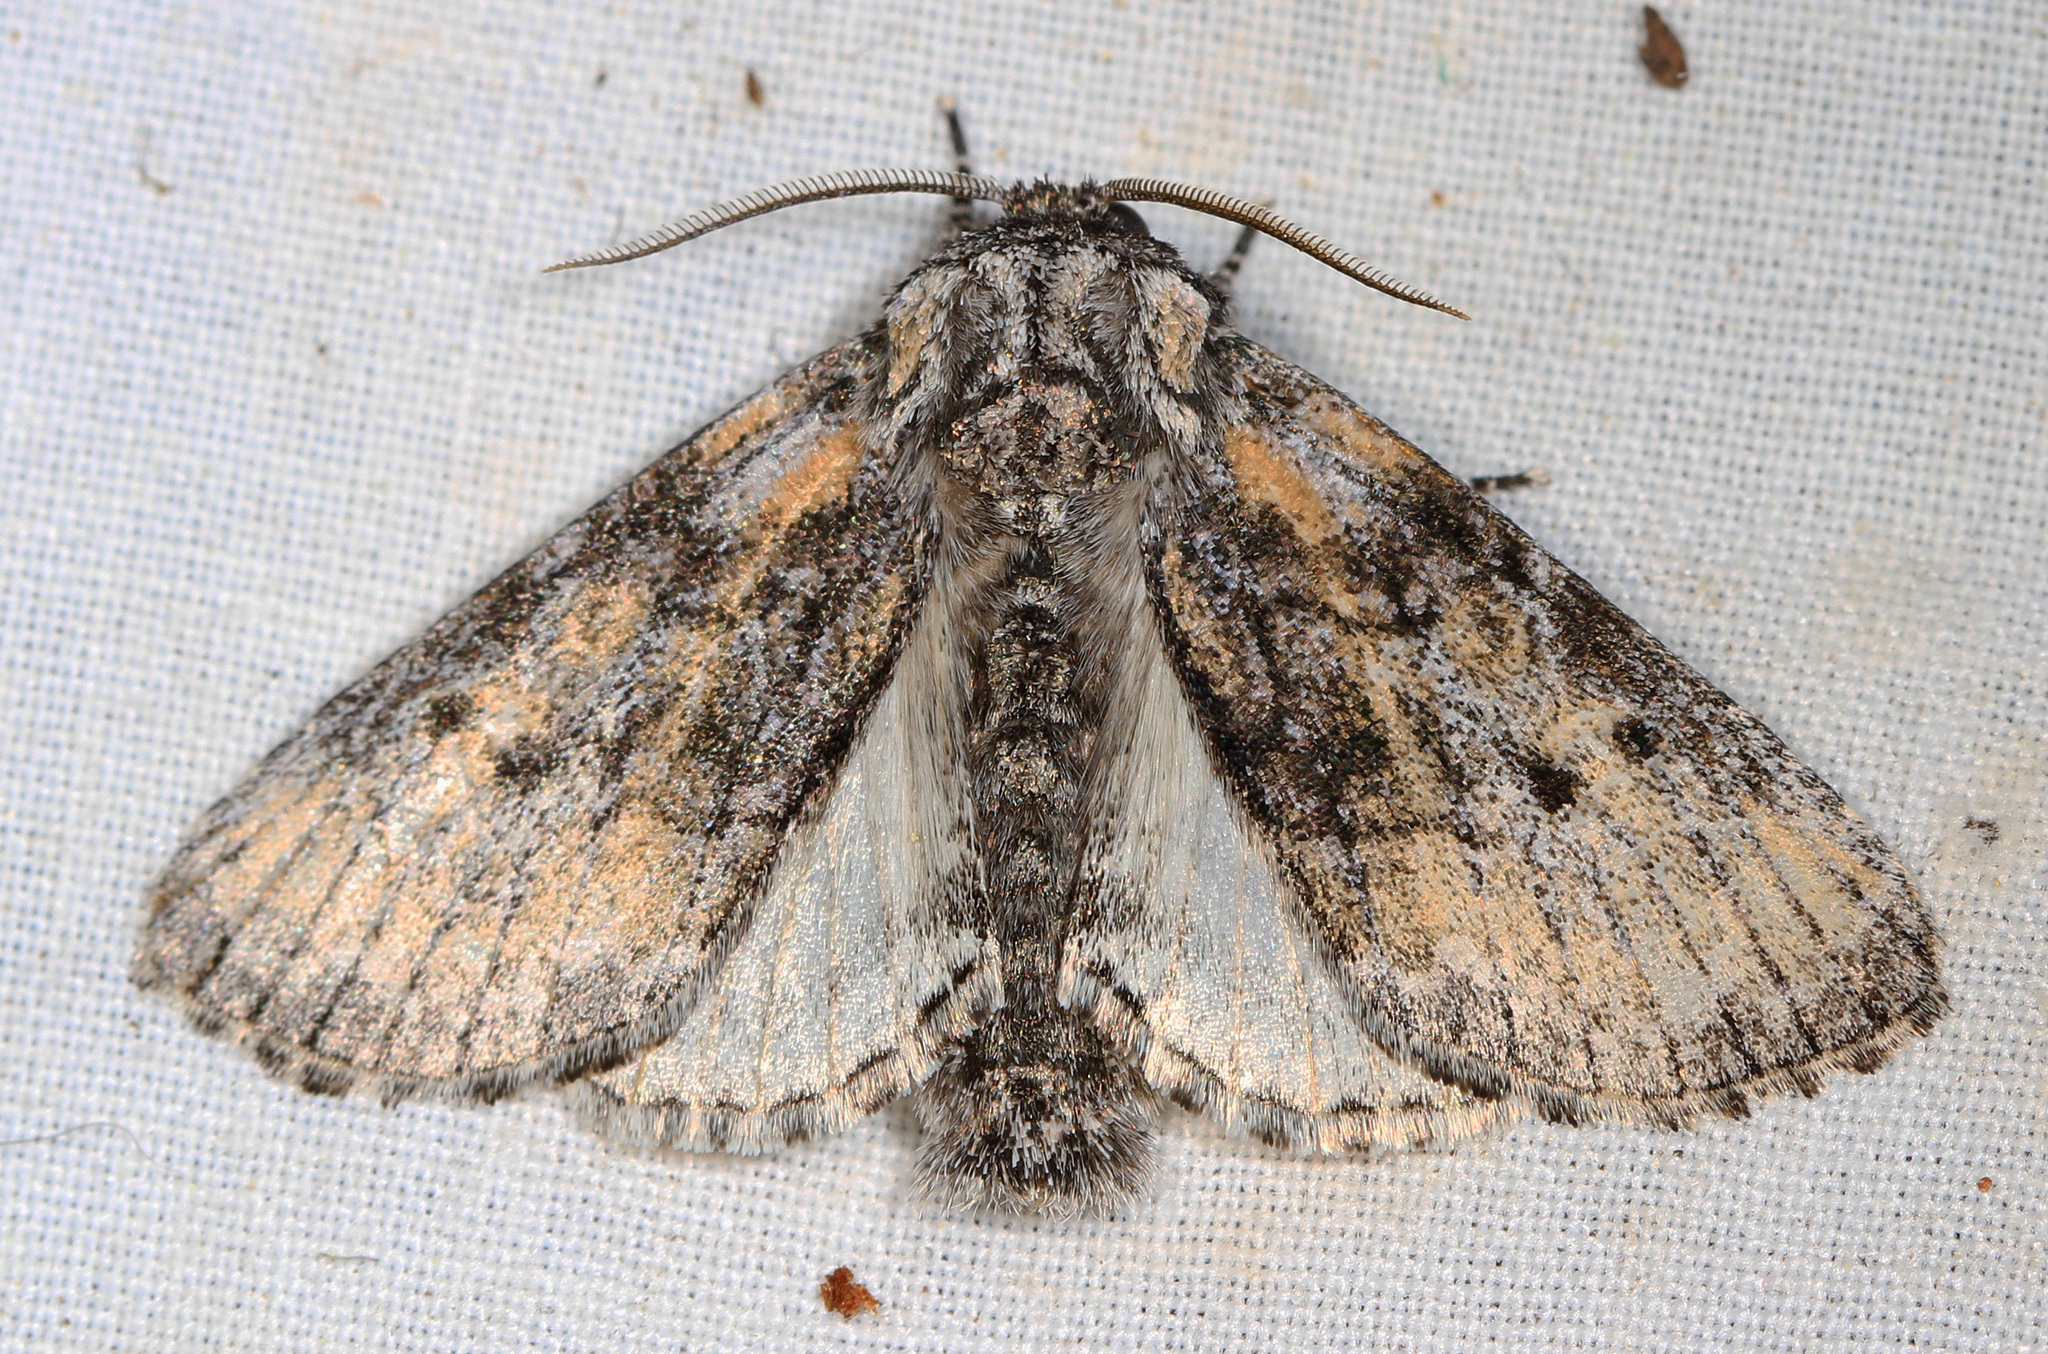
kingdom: Animalia
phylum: Arthropoda
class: Insecta
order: Lepidoptera
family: Noctuidae
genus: Raphia
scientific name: Raphia frater
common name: Brother
